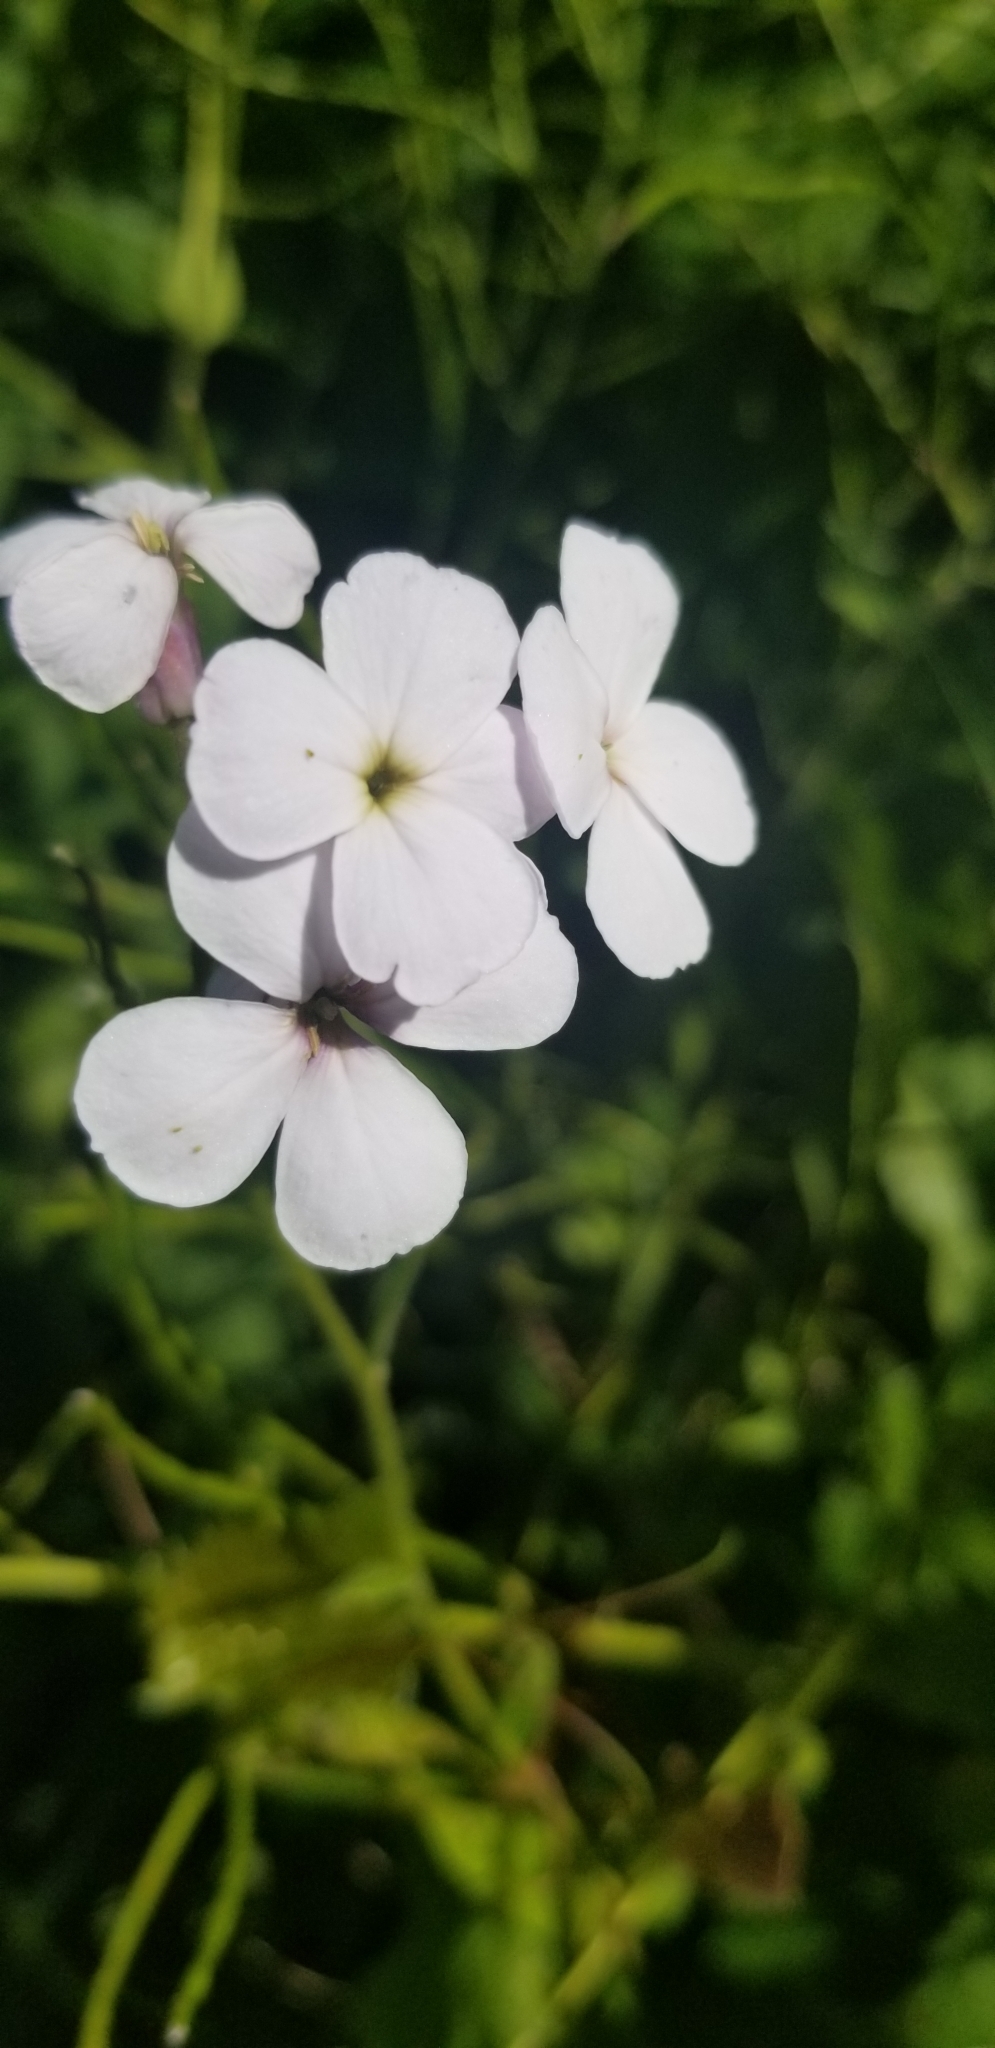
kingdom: Plantae
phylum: Tracheophyta
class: Magnoliopsida
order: Brassicales
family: Brassicaceae
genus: Hesperis
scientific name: Hesperis matronalis
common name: Dame's-violet
